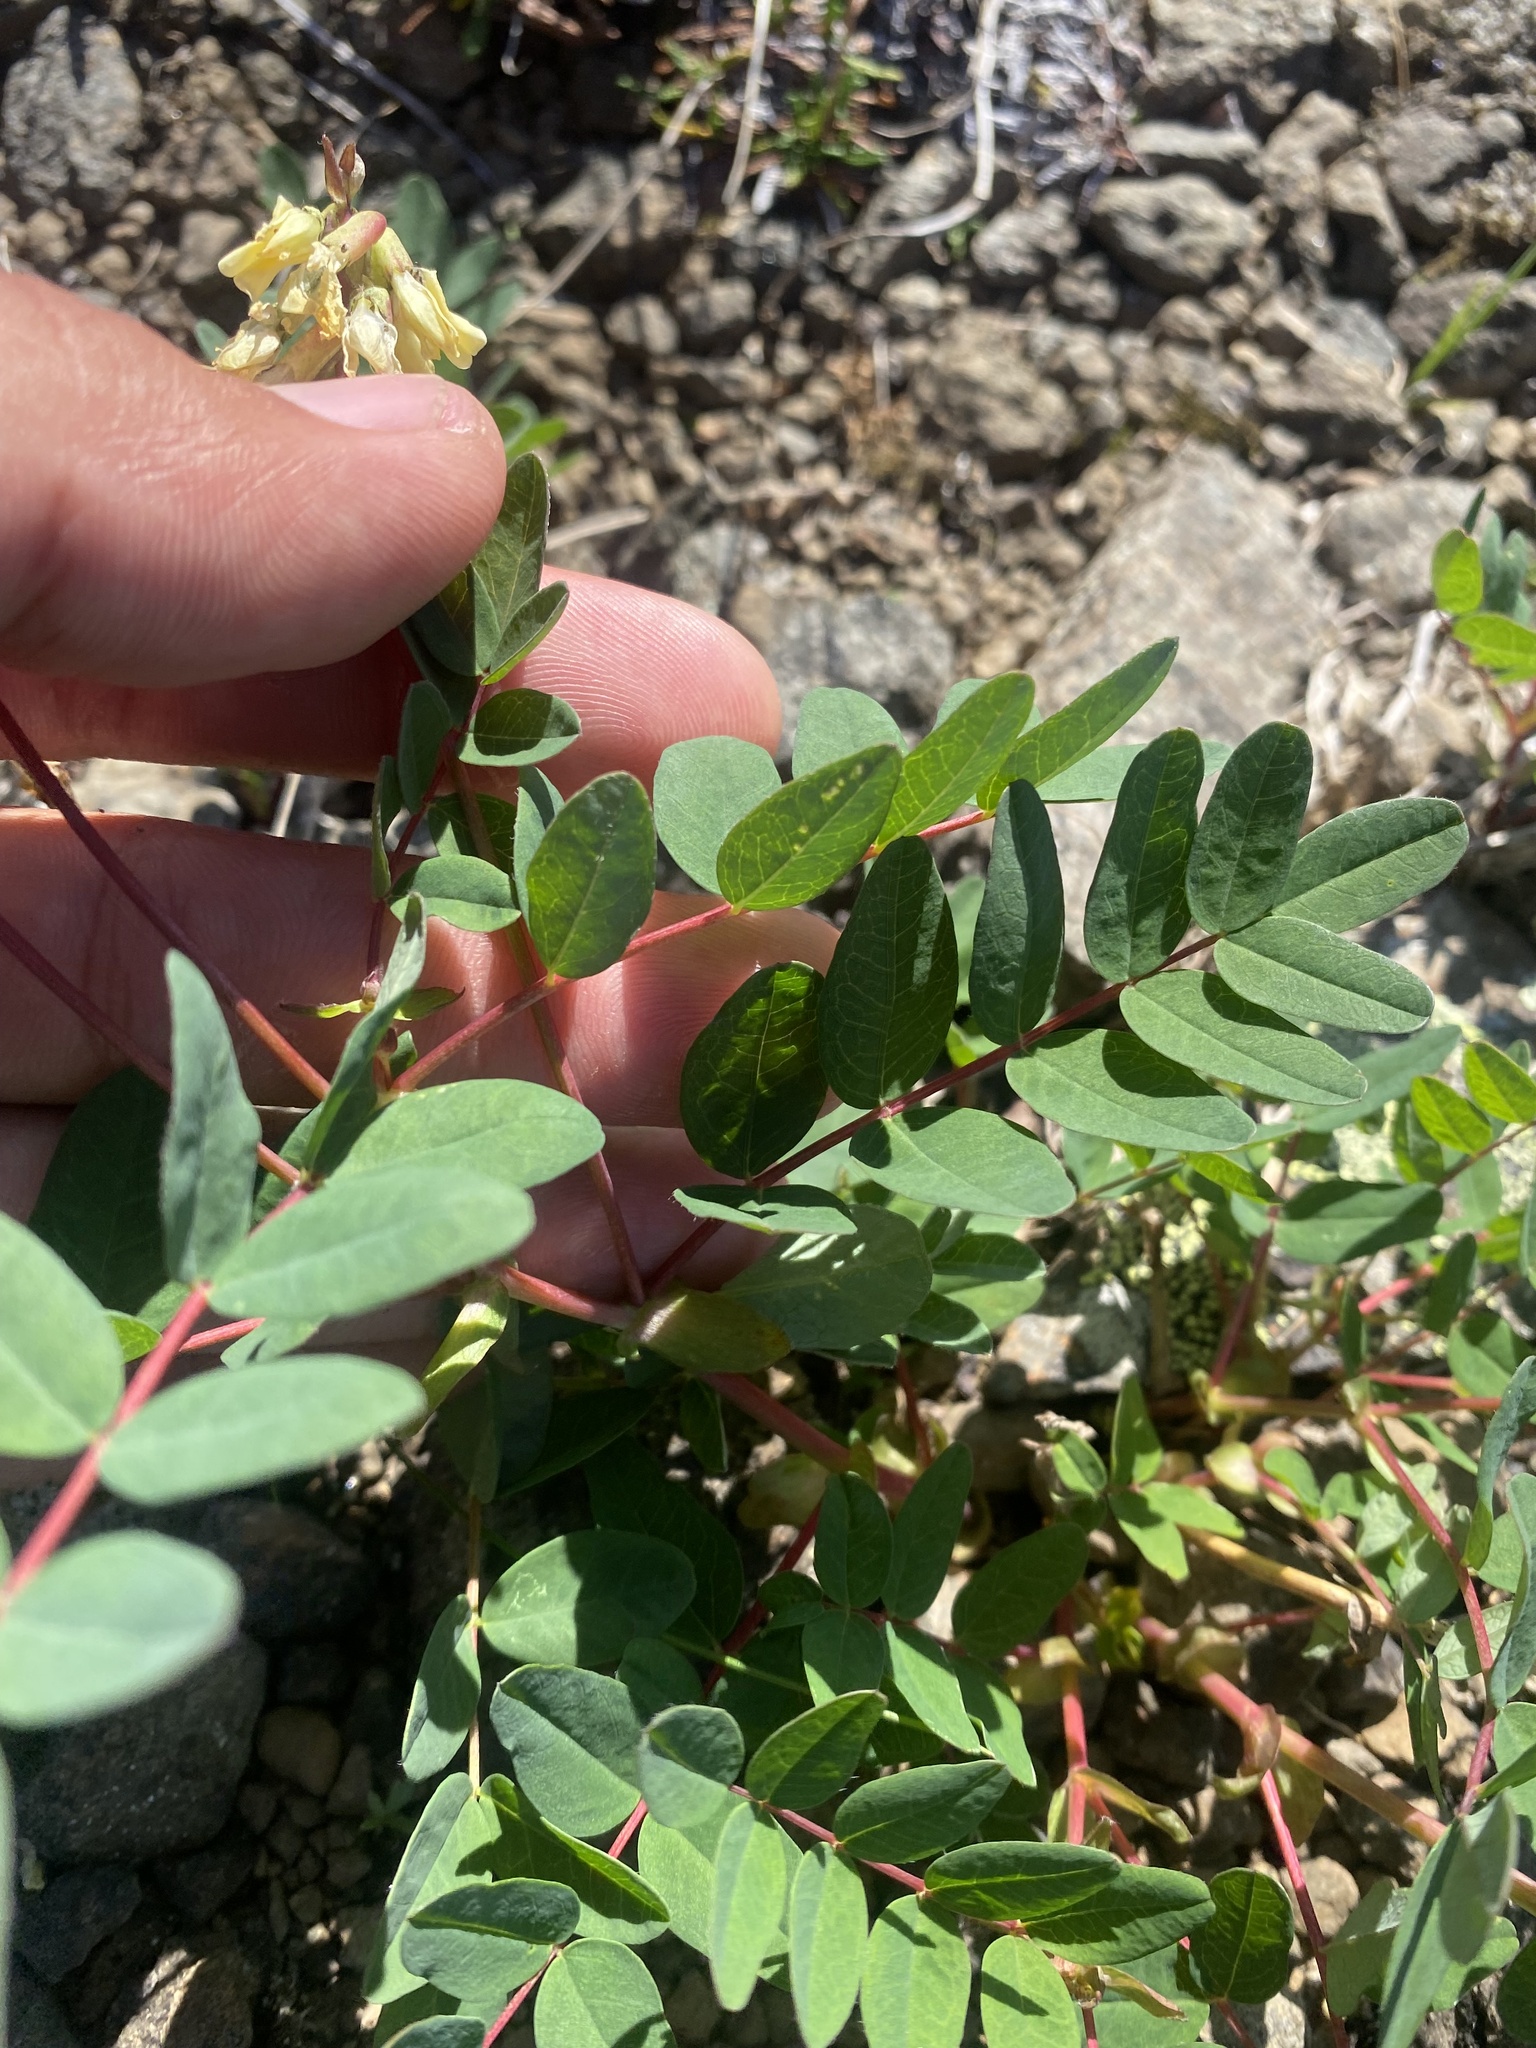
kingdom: Plantae
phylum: Tracheophyta
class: Magnoliopsida
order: Fabales
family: Fabaceae
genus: Astragalus
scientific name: Astragalus frigidus
